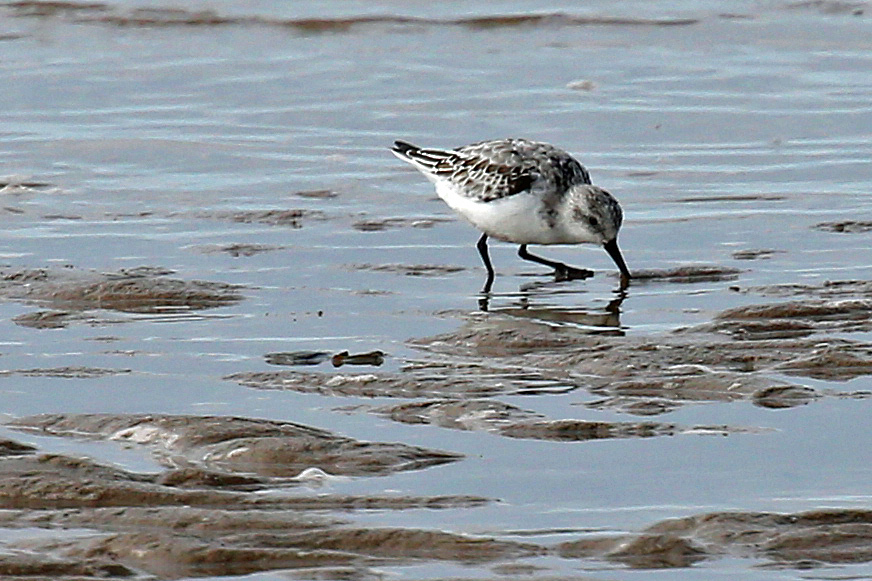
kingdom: Animalia
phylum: Chordata
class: Aves
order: Charadriiformes
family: Scolopacidae
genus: Calidris
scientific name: Calidris alba
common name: Sanderling
